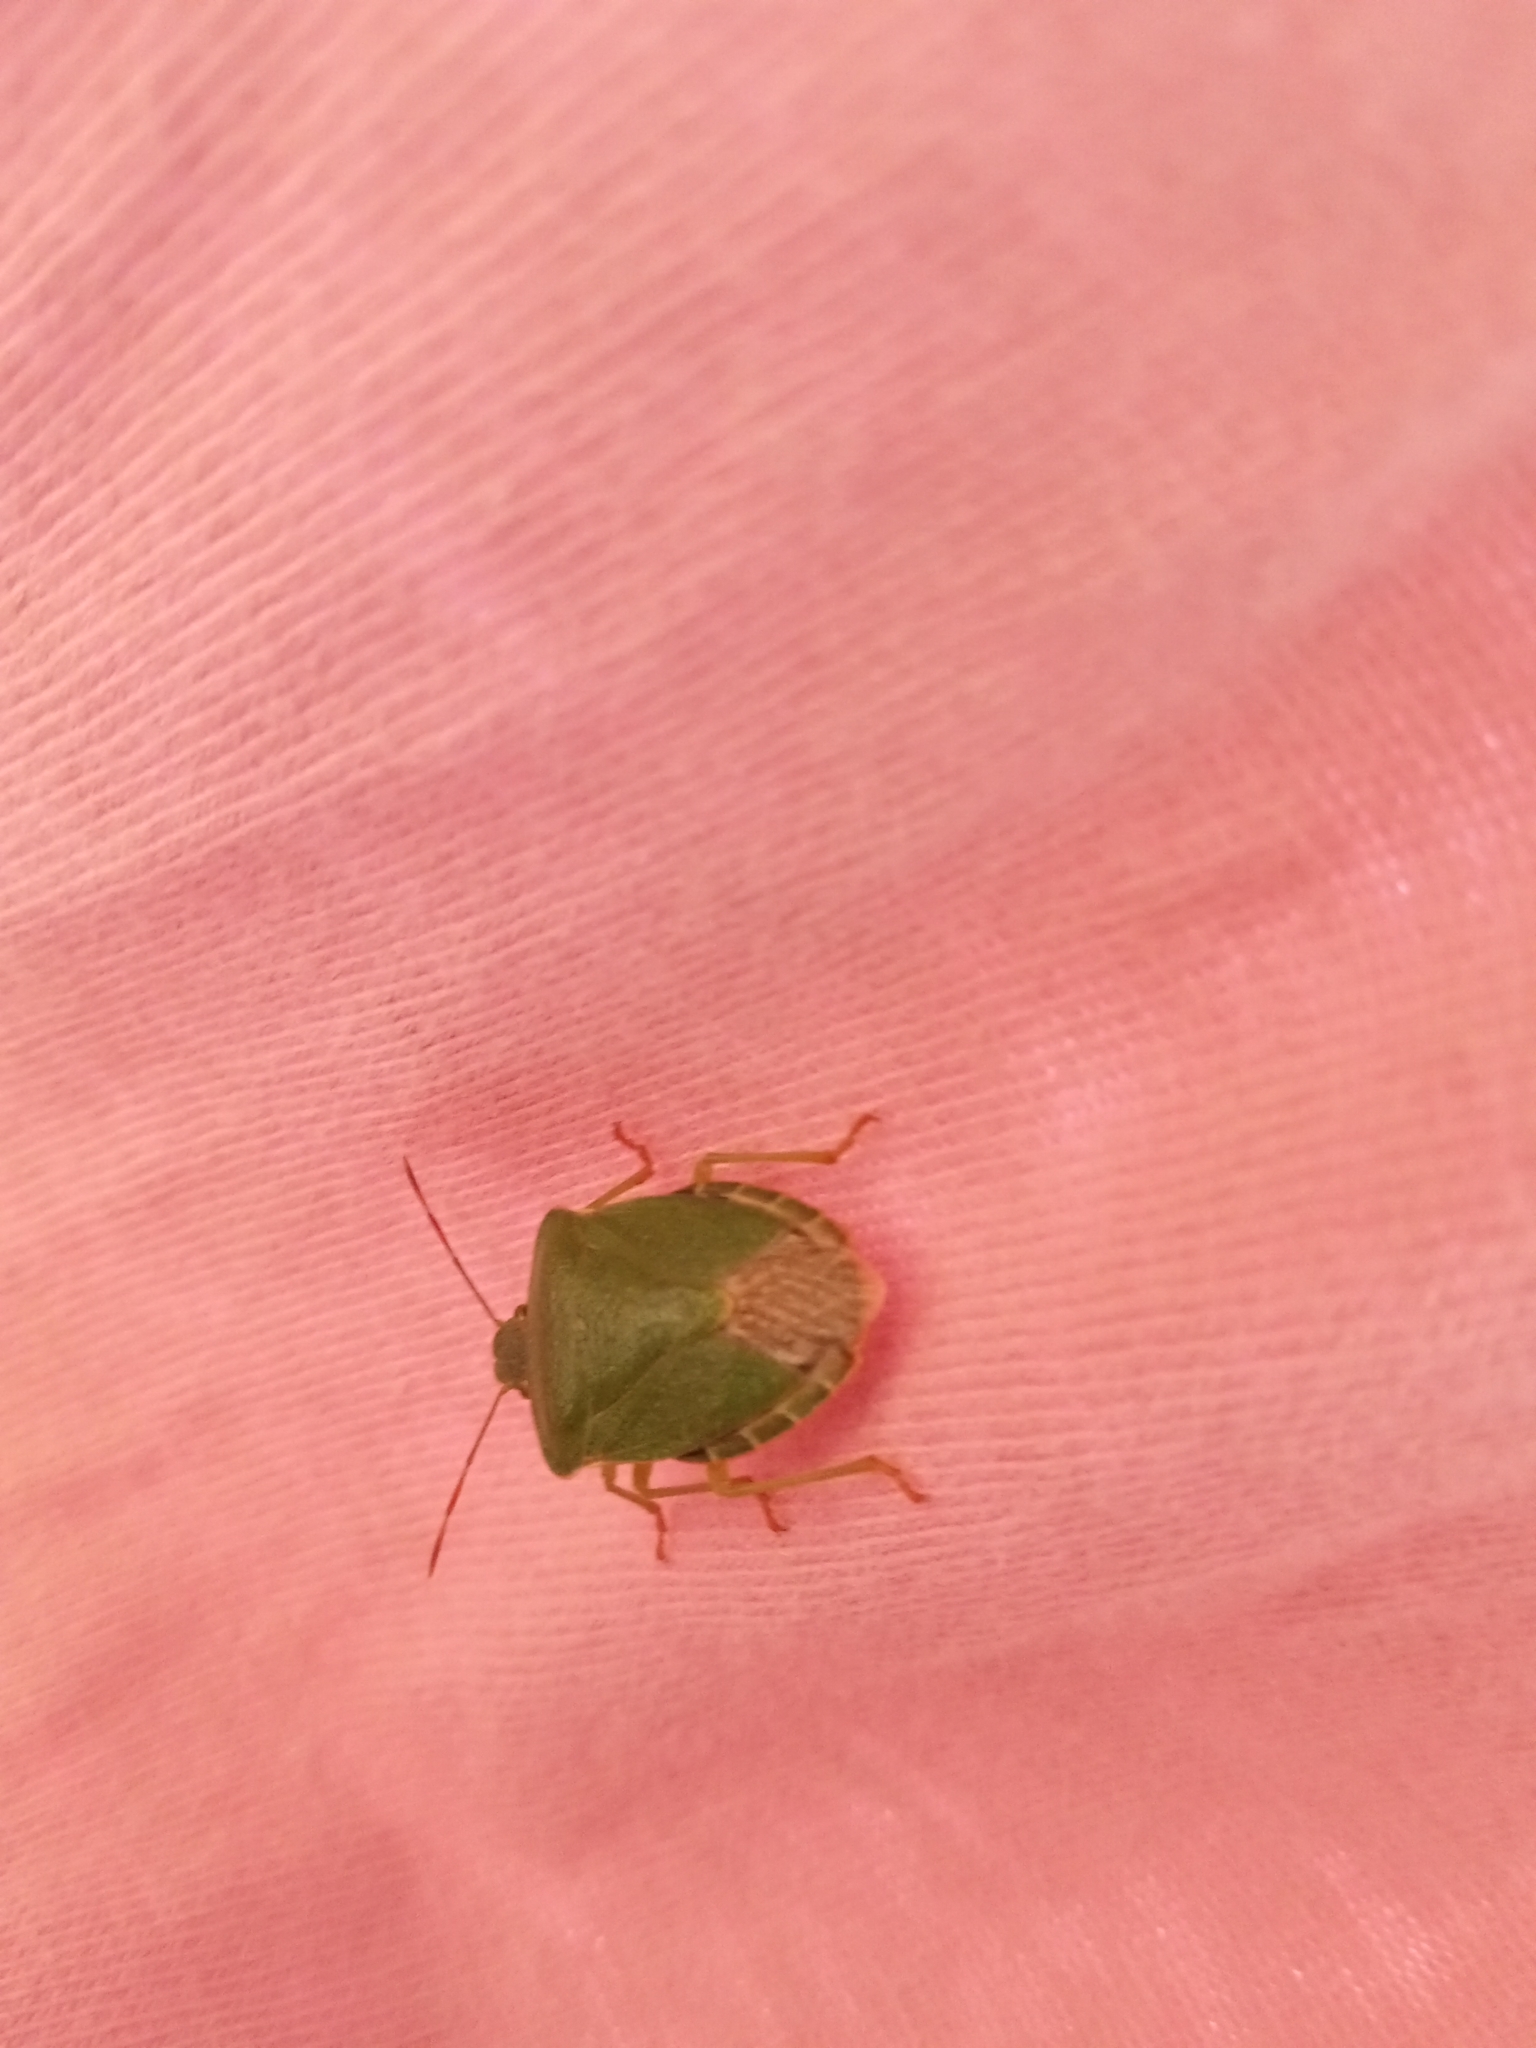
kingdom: Animalia
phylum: Arthropoda
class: Insecta
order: Hemiptera
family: Pentatomidae
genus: Palomena
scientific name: Palomena prasina
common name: Green shieldbug
